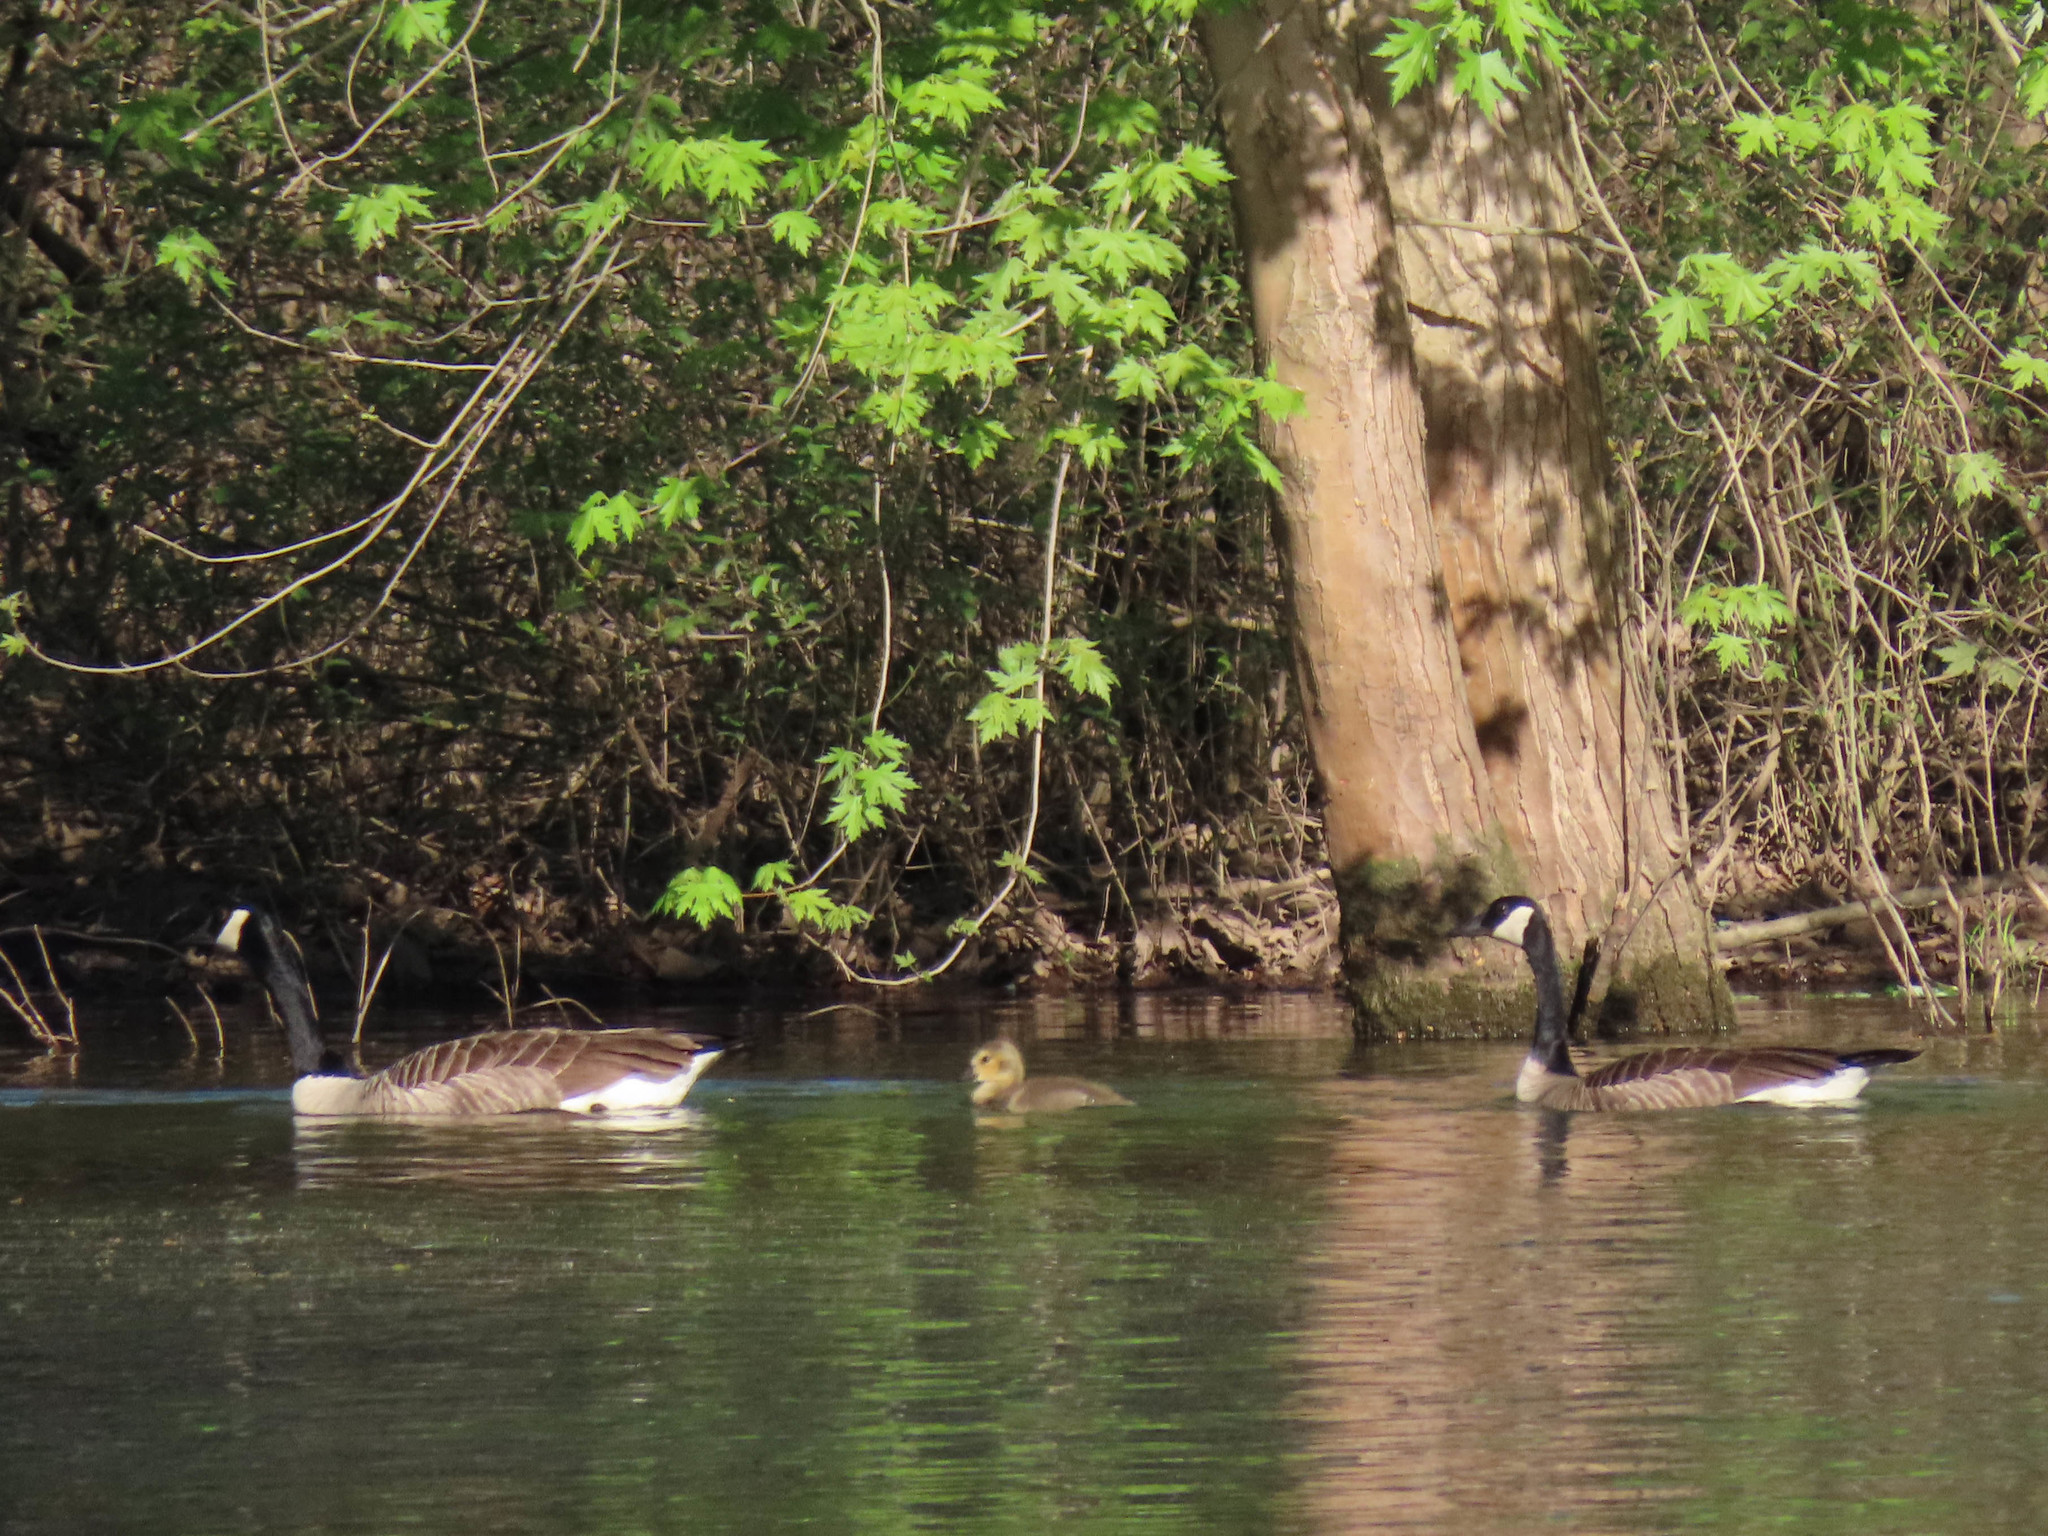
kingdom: Animalia
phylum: Chordata
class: Aves
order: Anseriformes
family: Anatidae
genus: Branta
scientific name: Branta canadensis
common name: Canada goose
